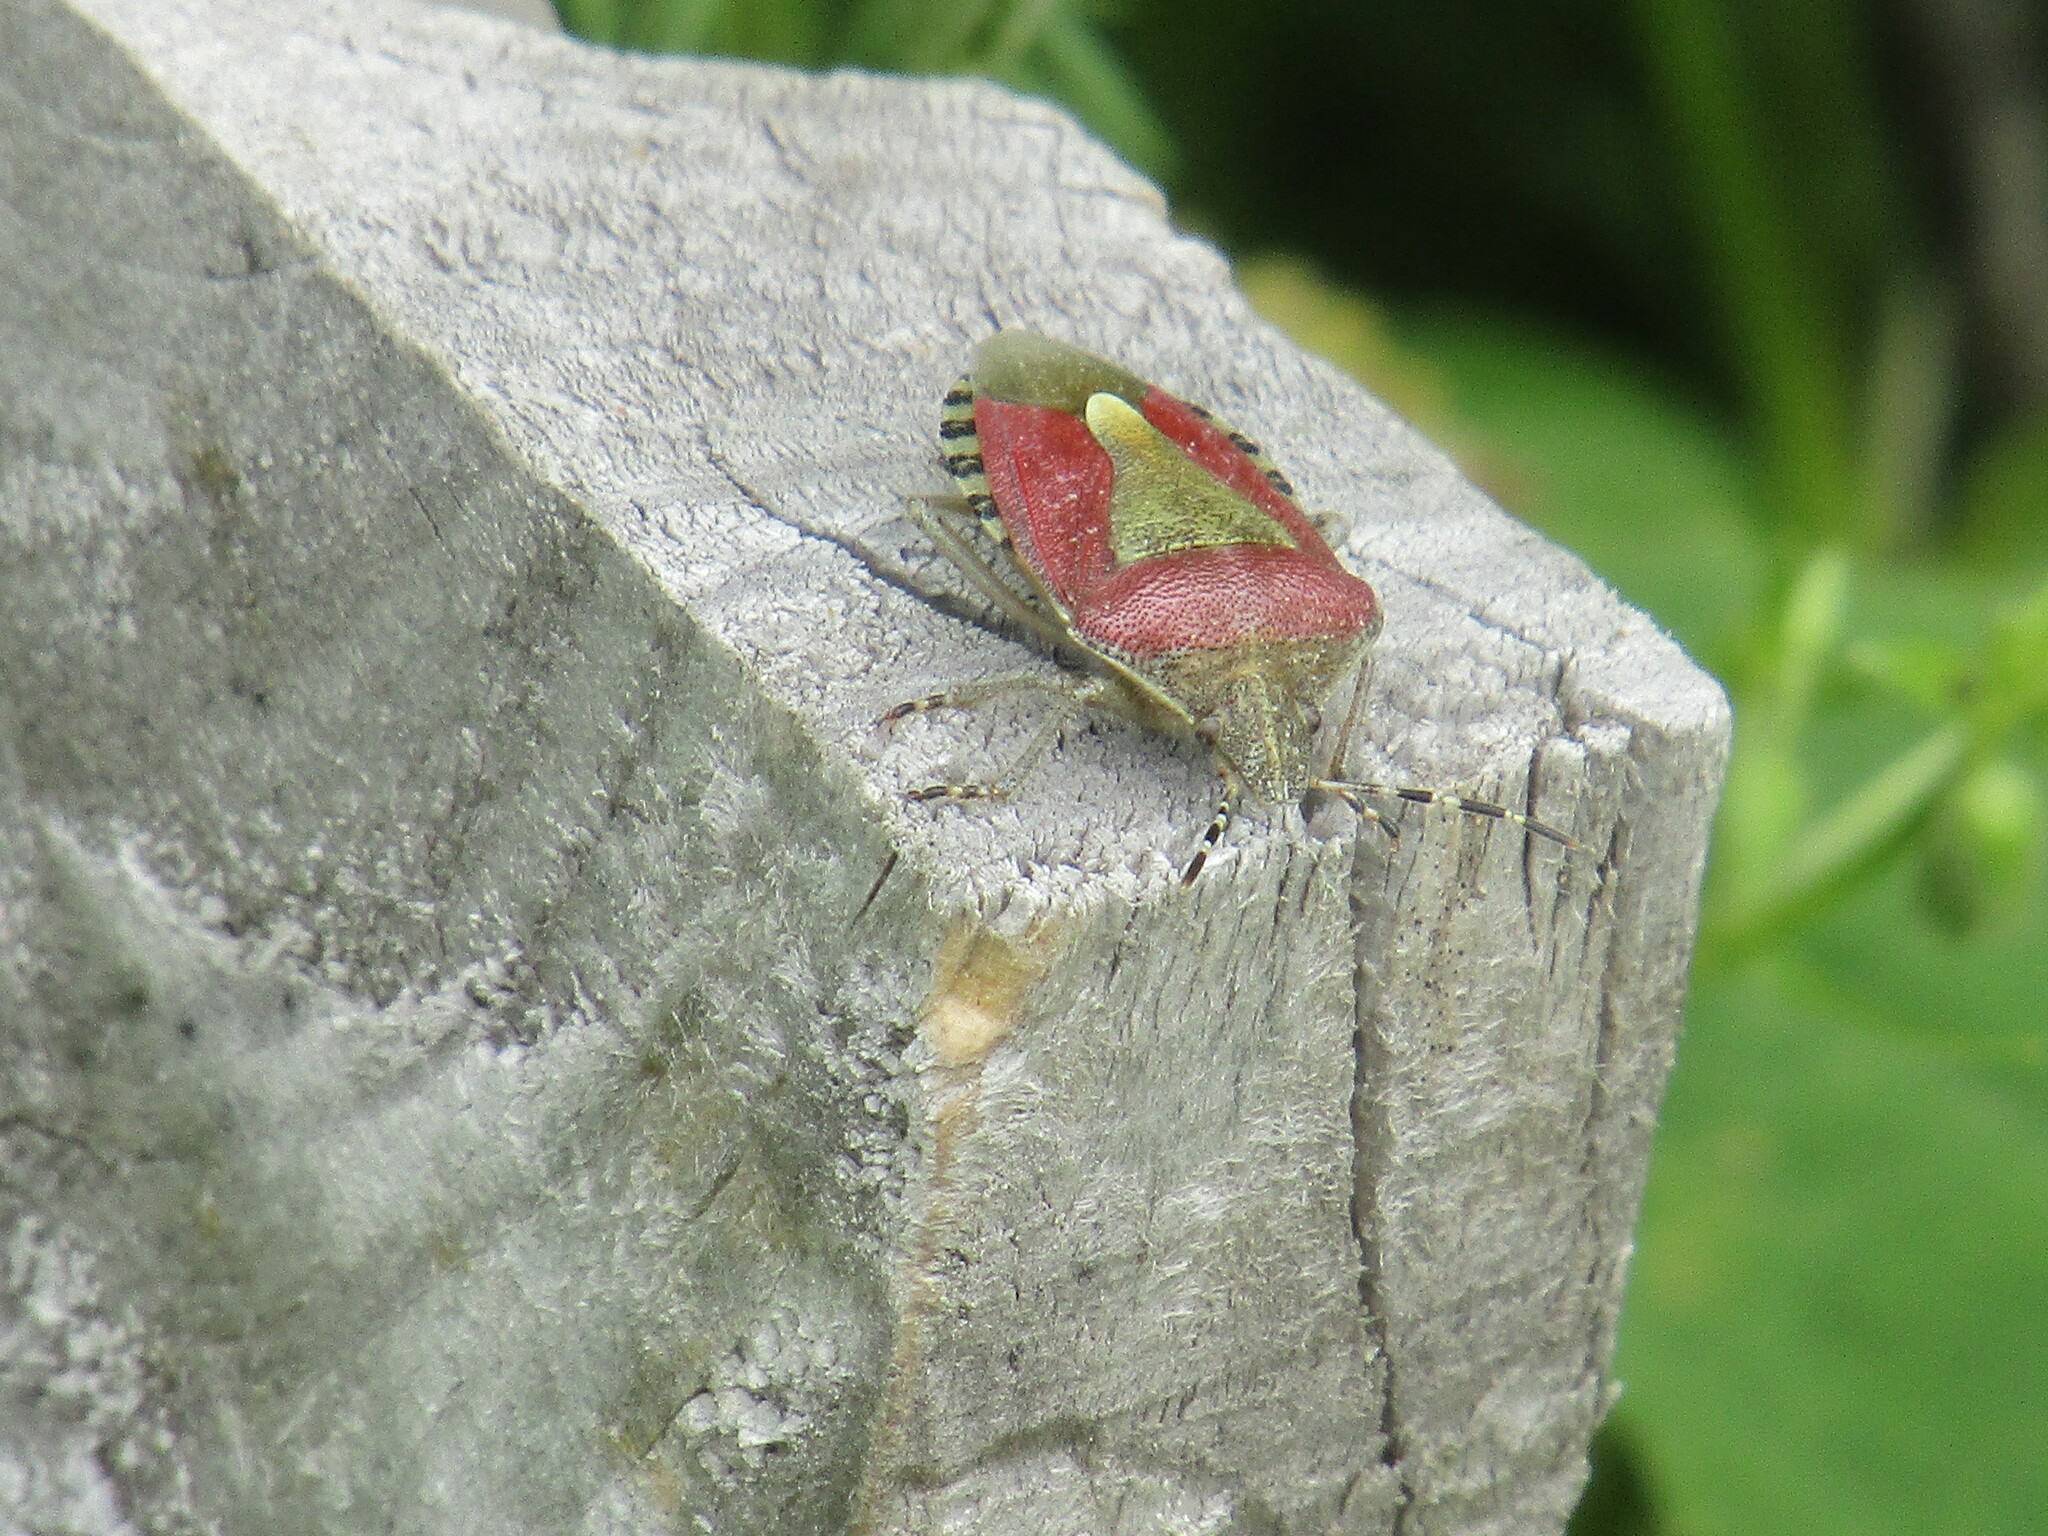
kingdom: Animalia
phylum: Arthropoda
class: Insecta
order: Hemiptera
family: Pentatomidae
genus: Dolycoris
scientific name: Dolycoris baccarum
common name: Sloe bug
